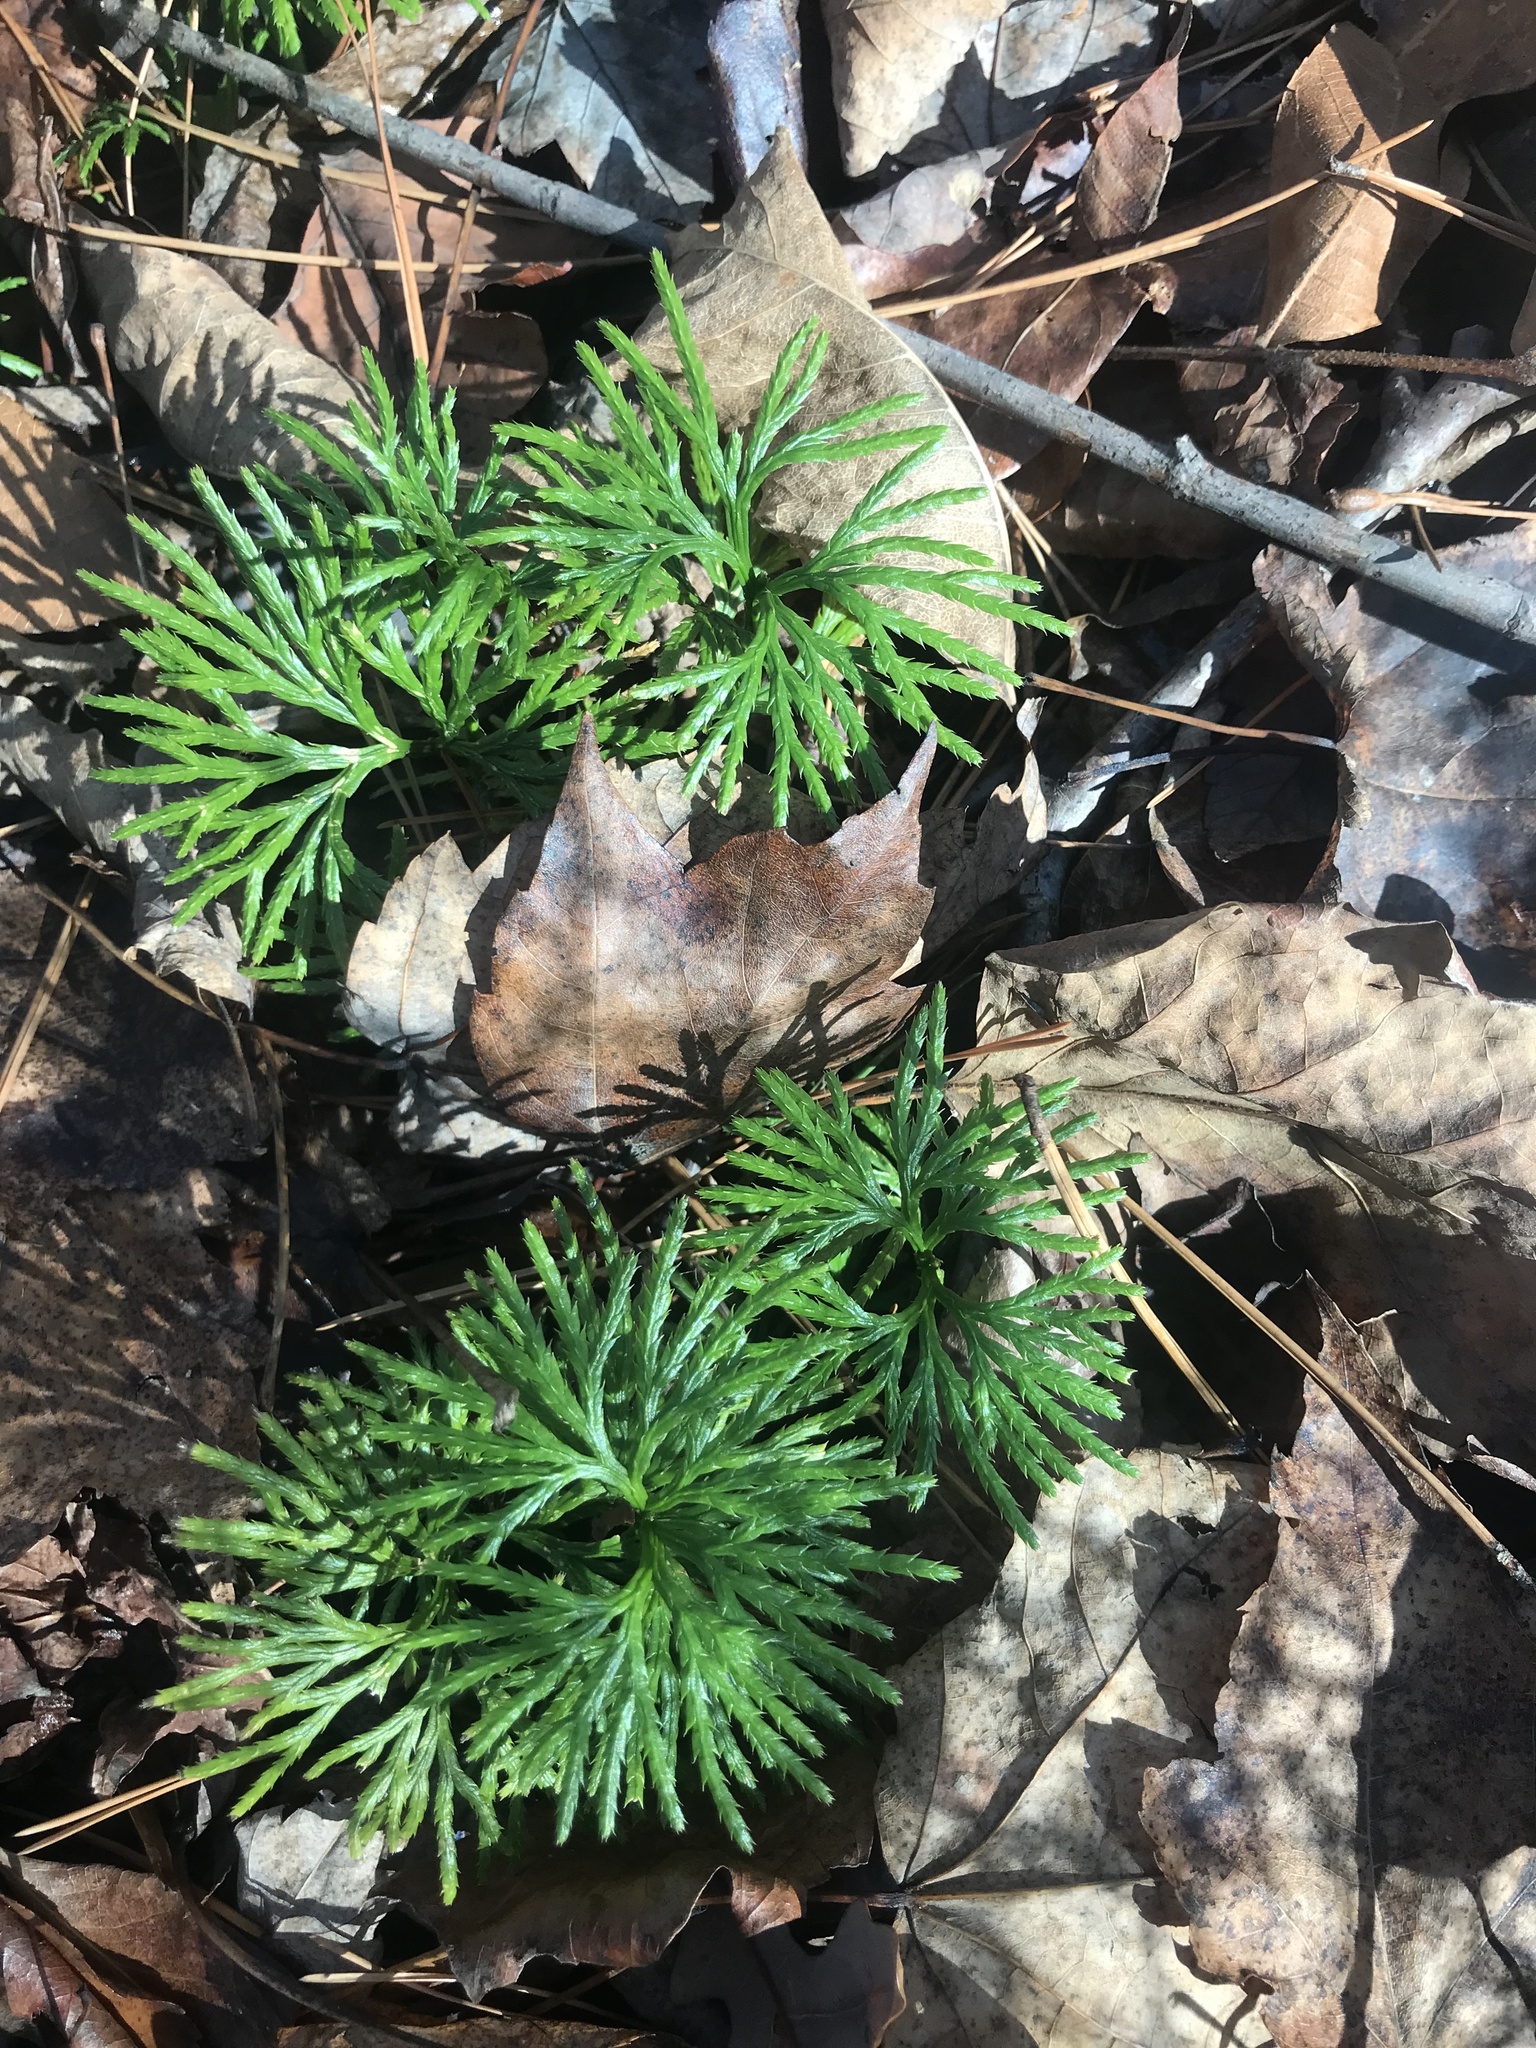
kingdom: Plantae
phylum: Tracheophyta
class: Lycopodiopsida
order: Lycopodiales
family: Lycopodiaceae
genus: Diphasiastrum
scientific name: Diphasiastrum digitatum
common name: Southern running-pine
